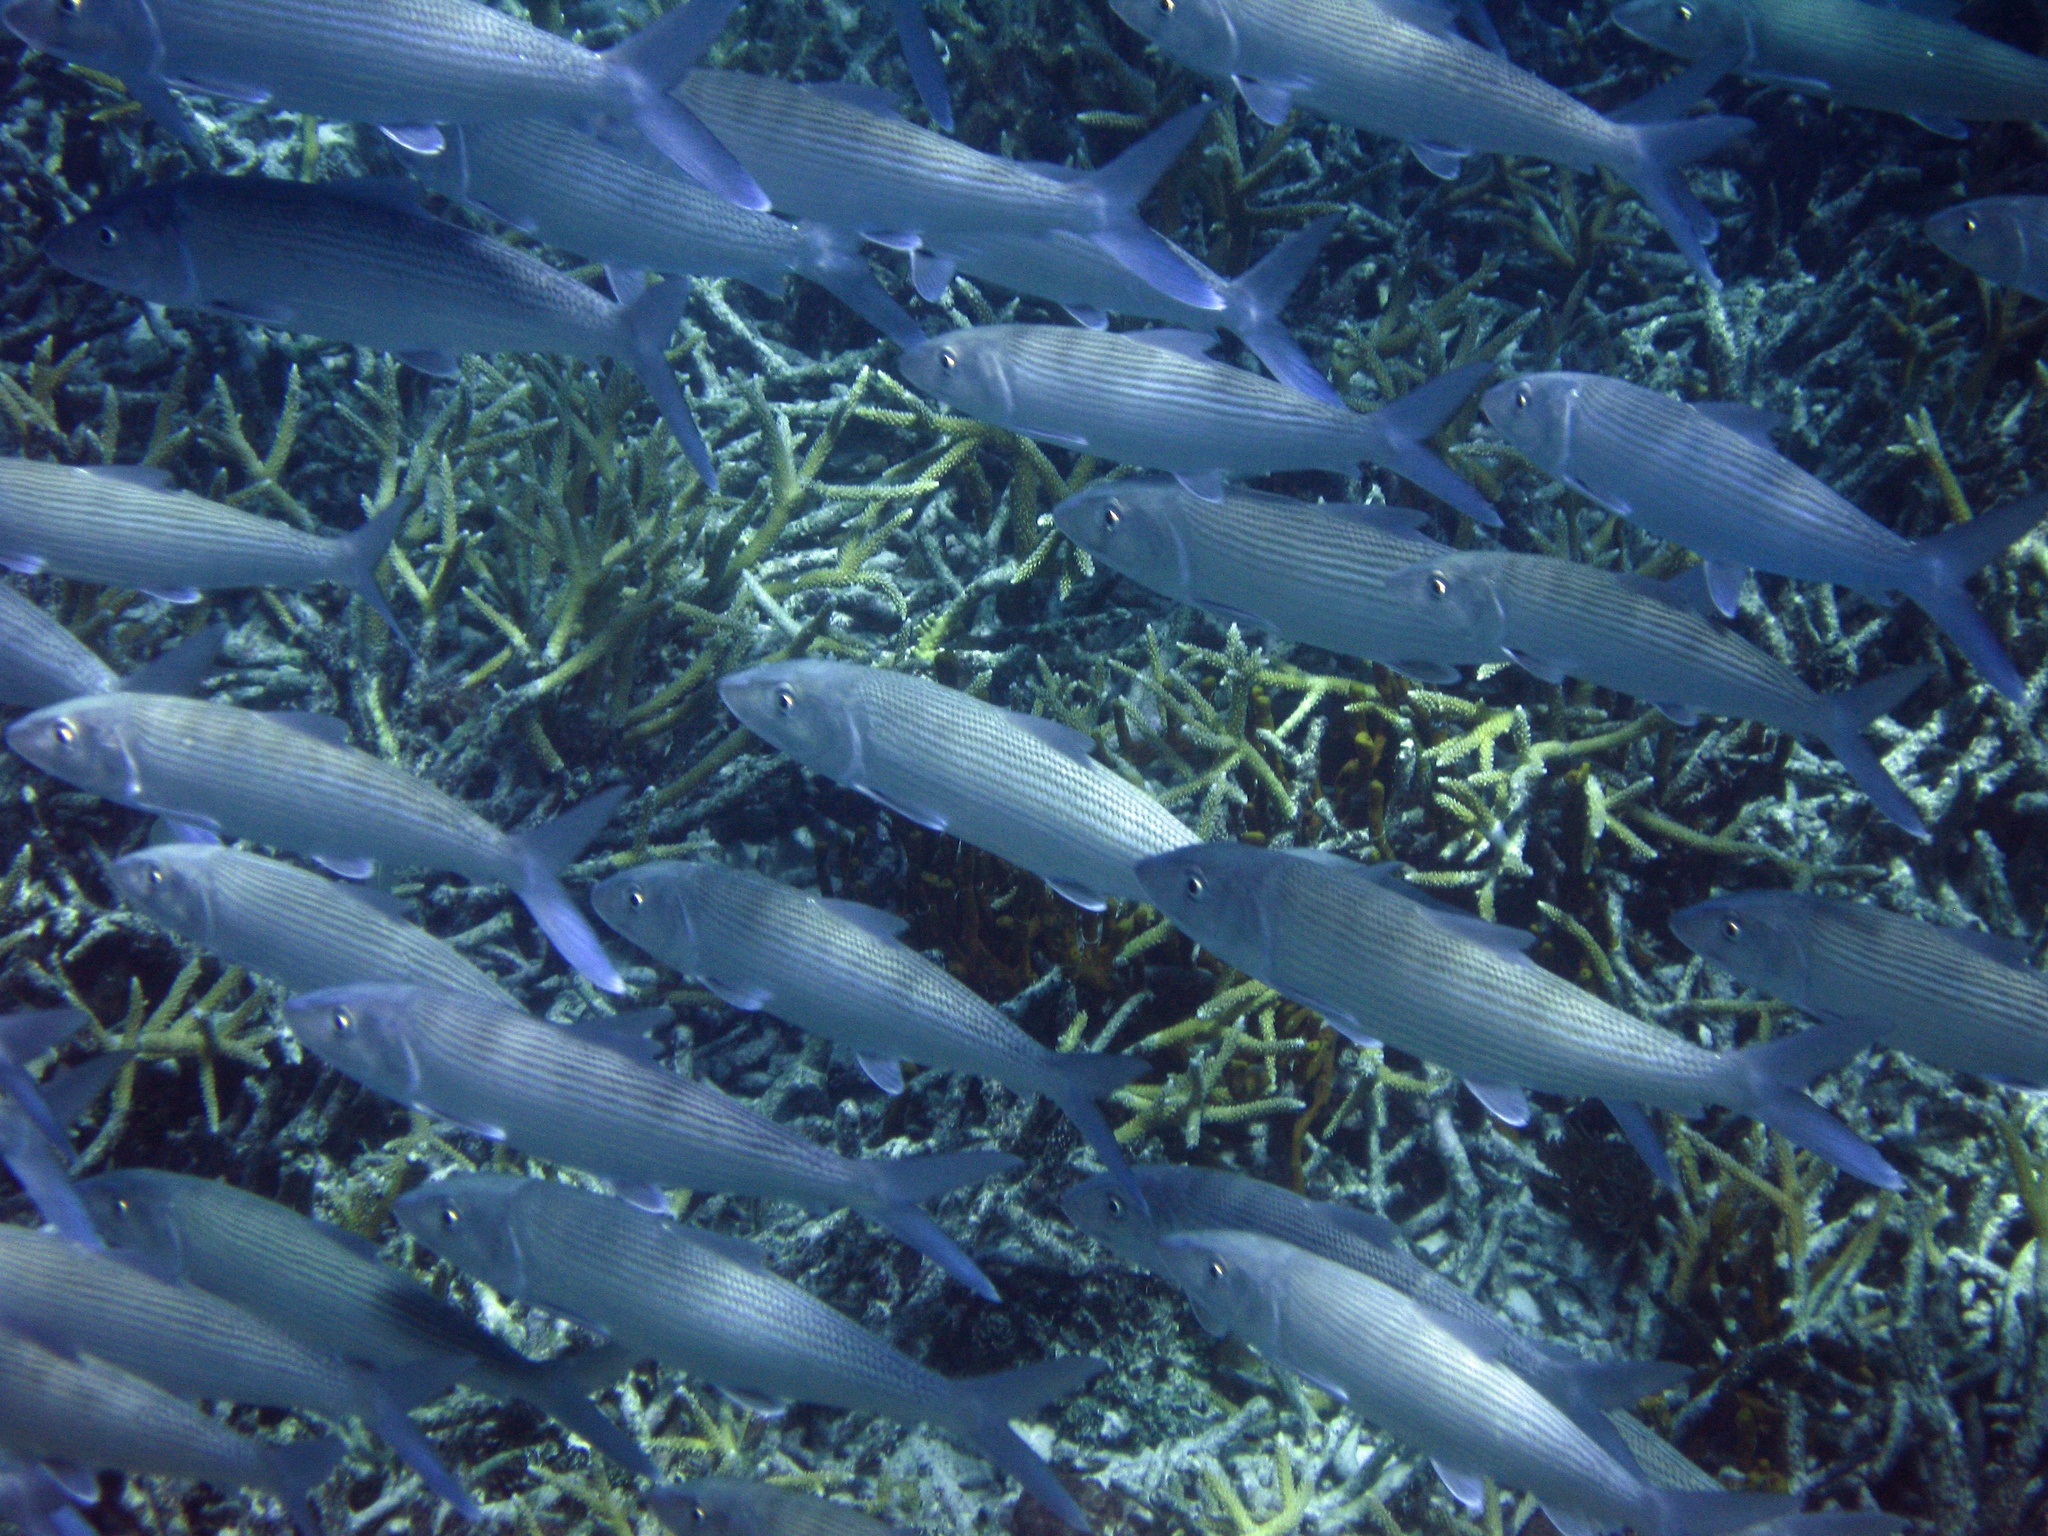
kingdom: Animalia
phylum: Chordata
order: Albuliformes
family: Albulidae
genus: Albula
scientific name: Albula vulpes
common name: Bonefish
